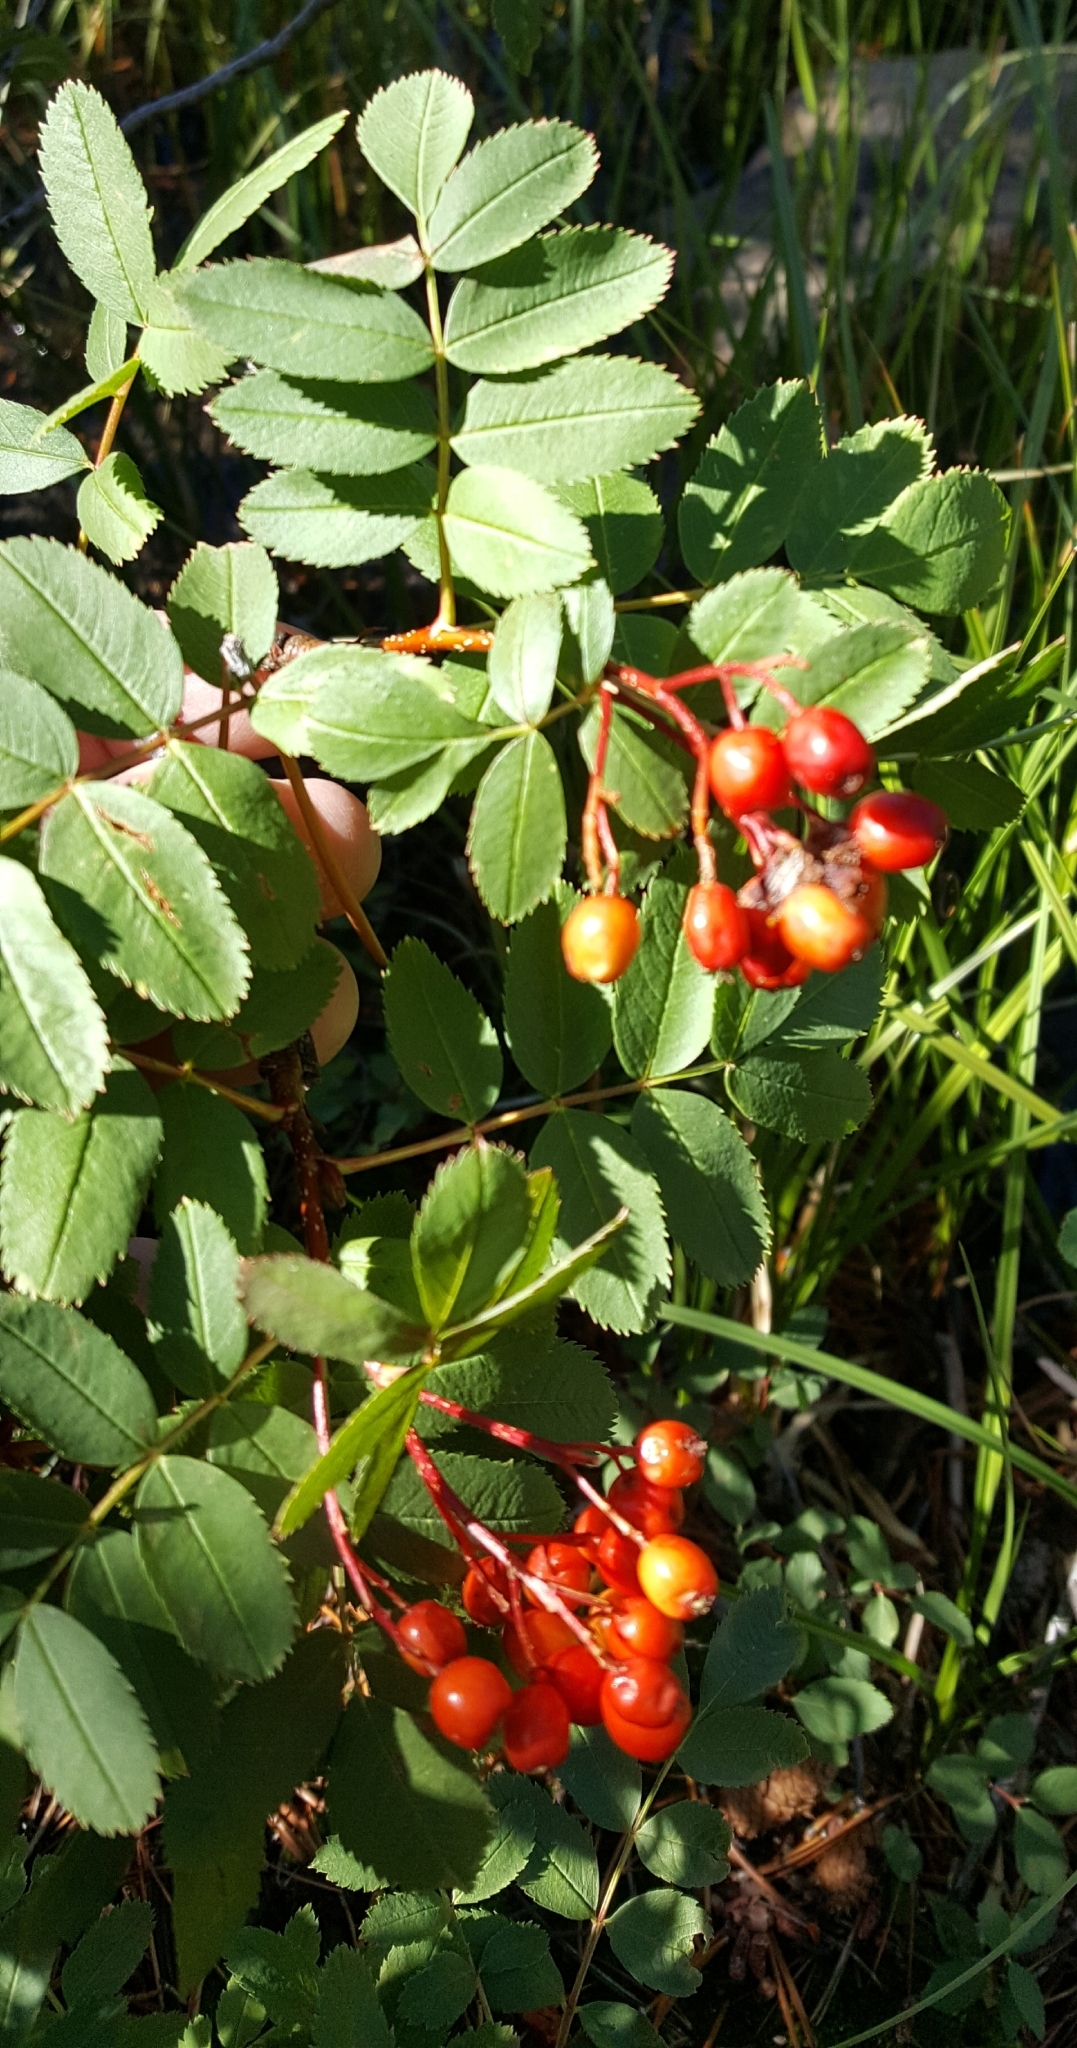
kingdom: Plantae
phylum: Tracheophyta
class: Magnoliopsida
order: Rosales
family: Rosaceae
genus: Sorbus
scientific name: Sorbus californica
